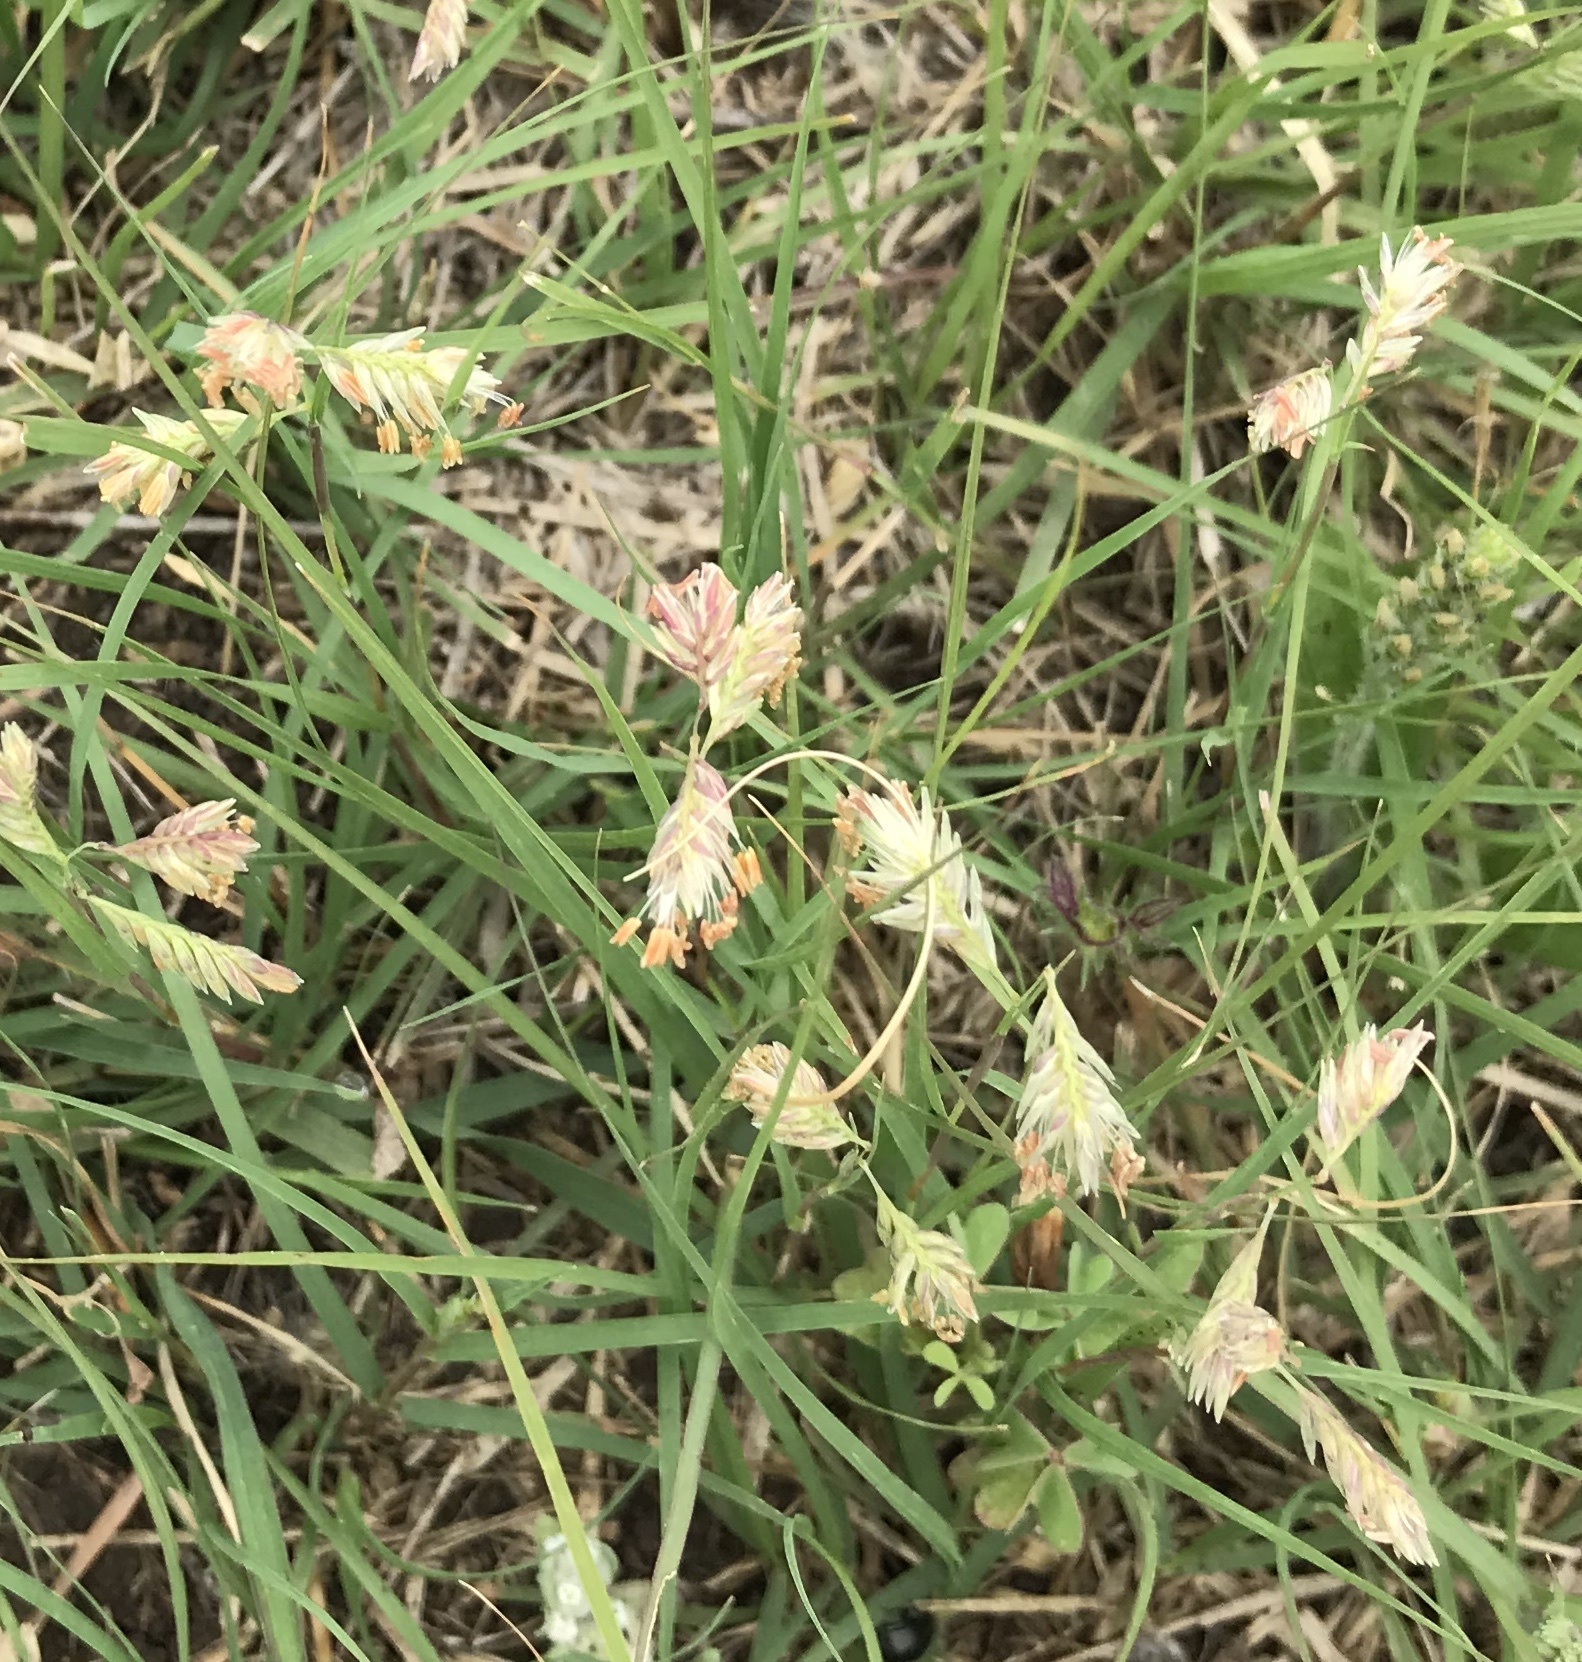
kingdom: Plantae
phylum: Tracheophyta
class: Liliopsida
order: Poales
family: Poaceae
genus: Bouteloua
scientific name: Bouteloua dactyloides
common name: Buffalo grass
